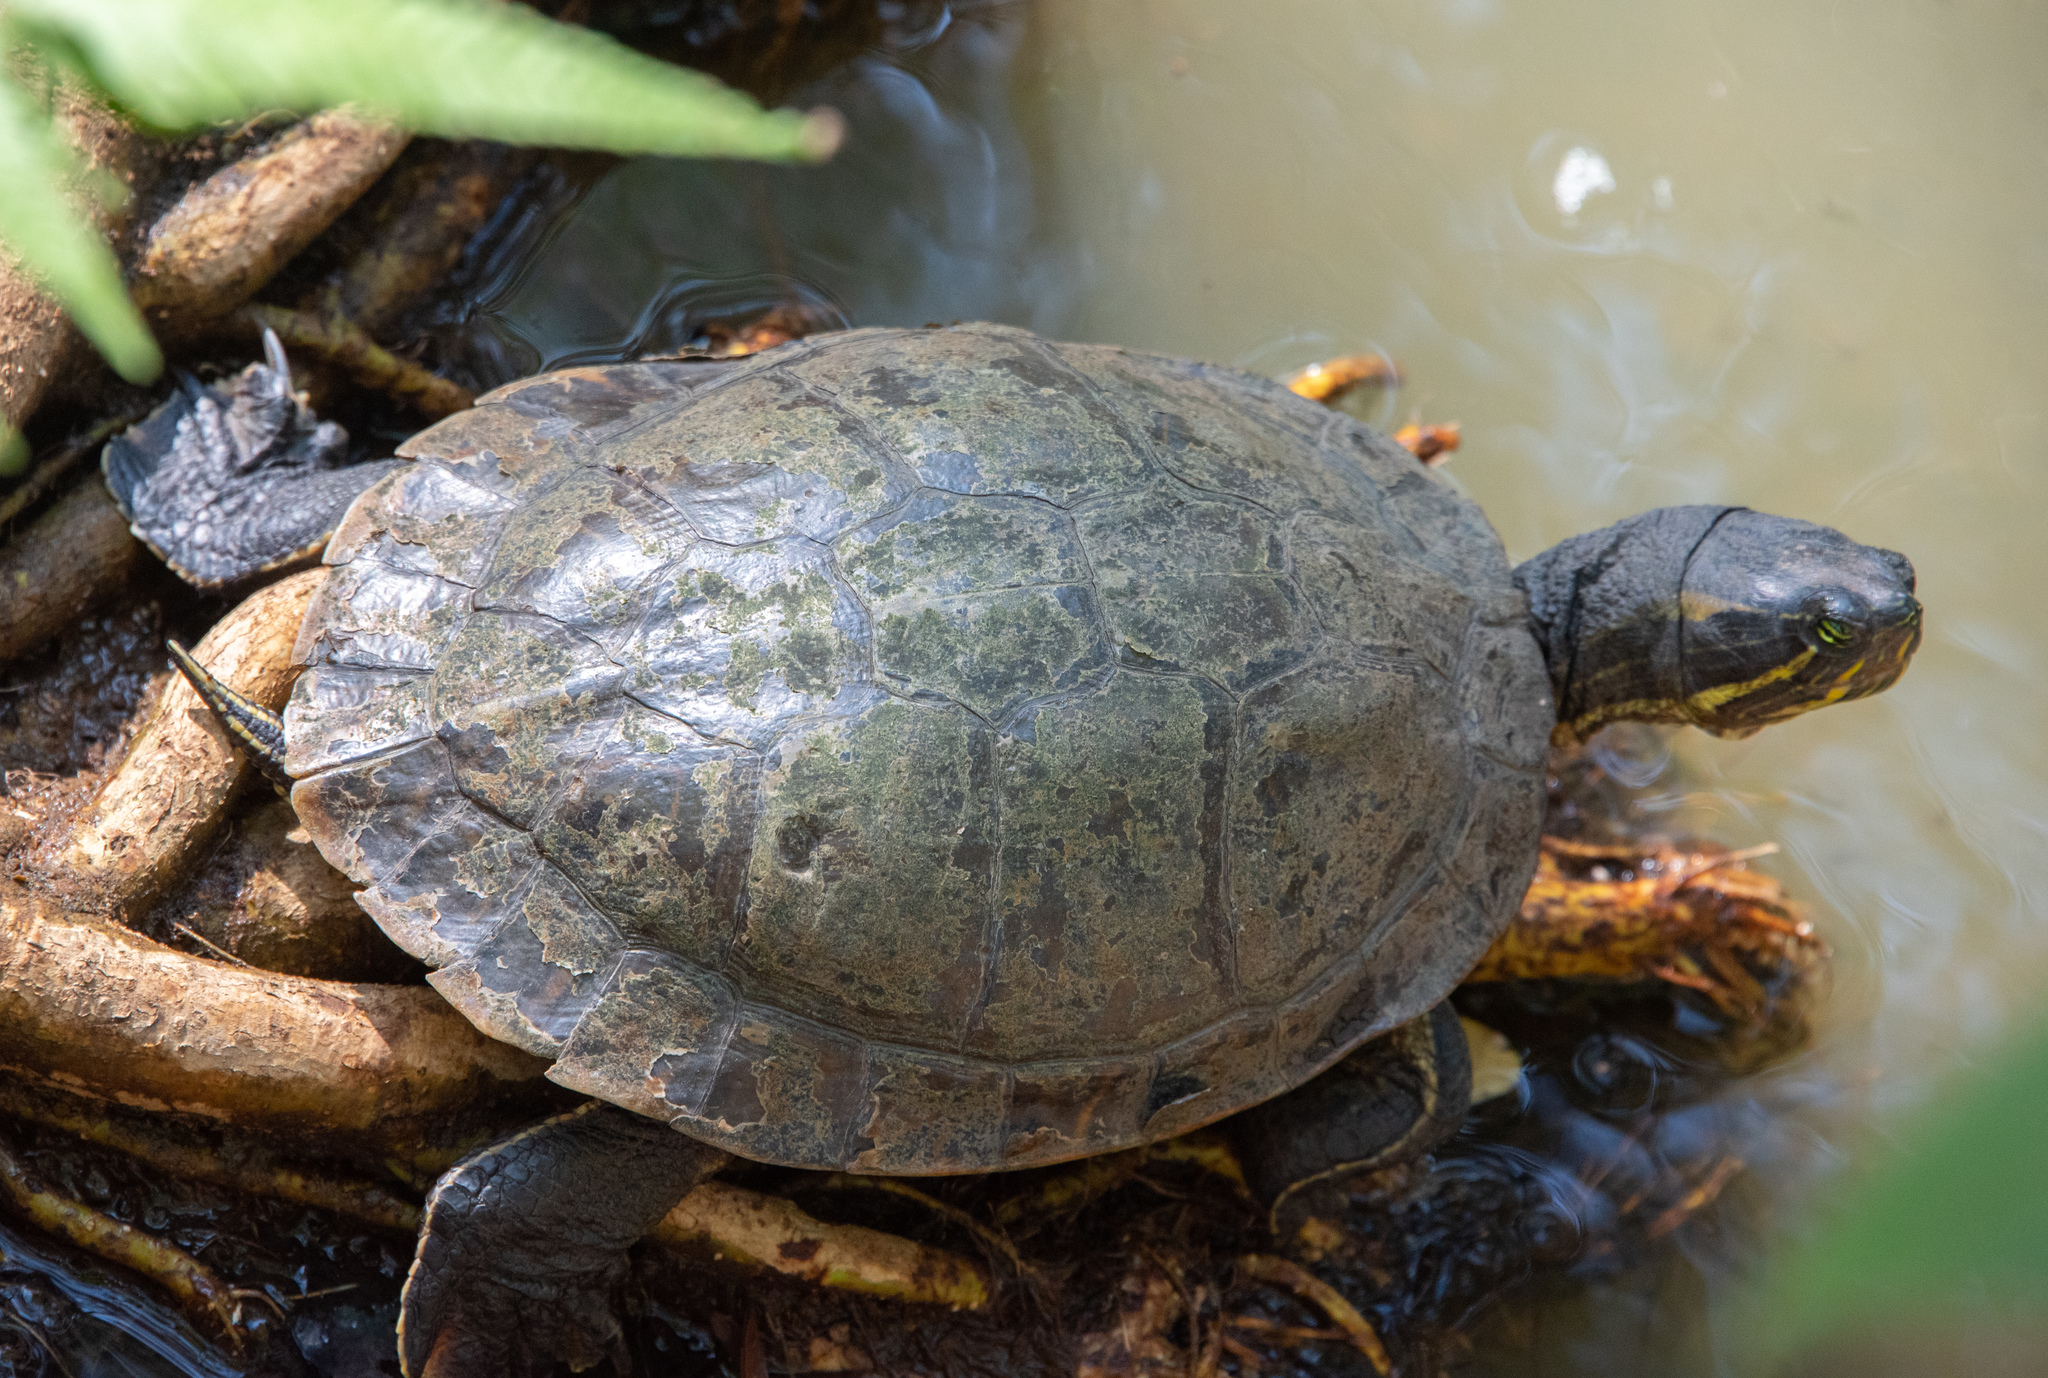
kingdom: Animalia
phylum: Chordata
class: Testudines
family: Emydidae
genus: Trachemys
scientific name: Trachemys grayi
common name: Gray's slider
